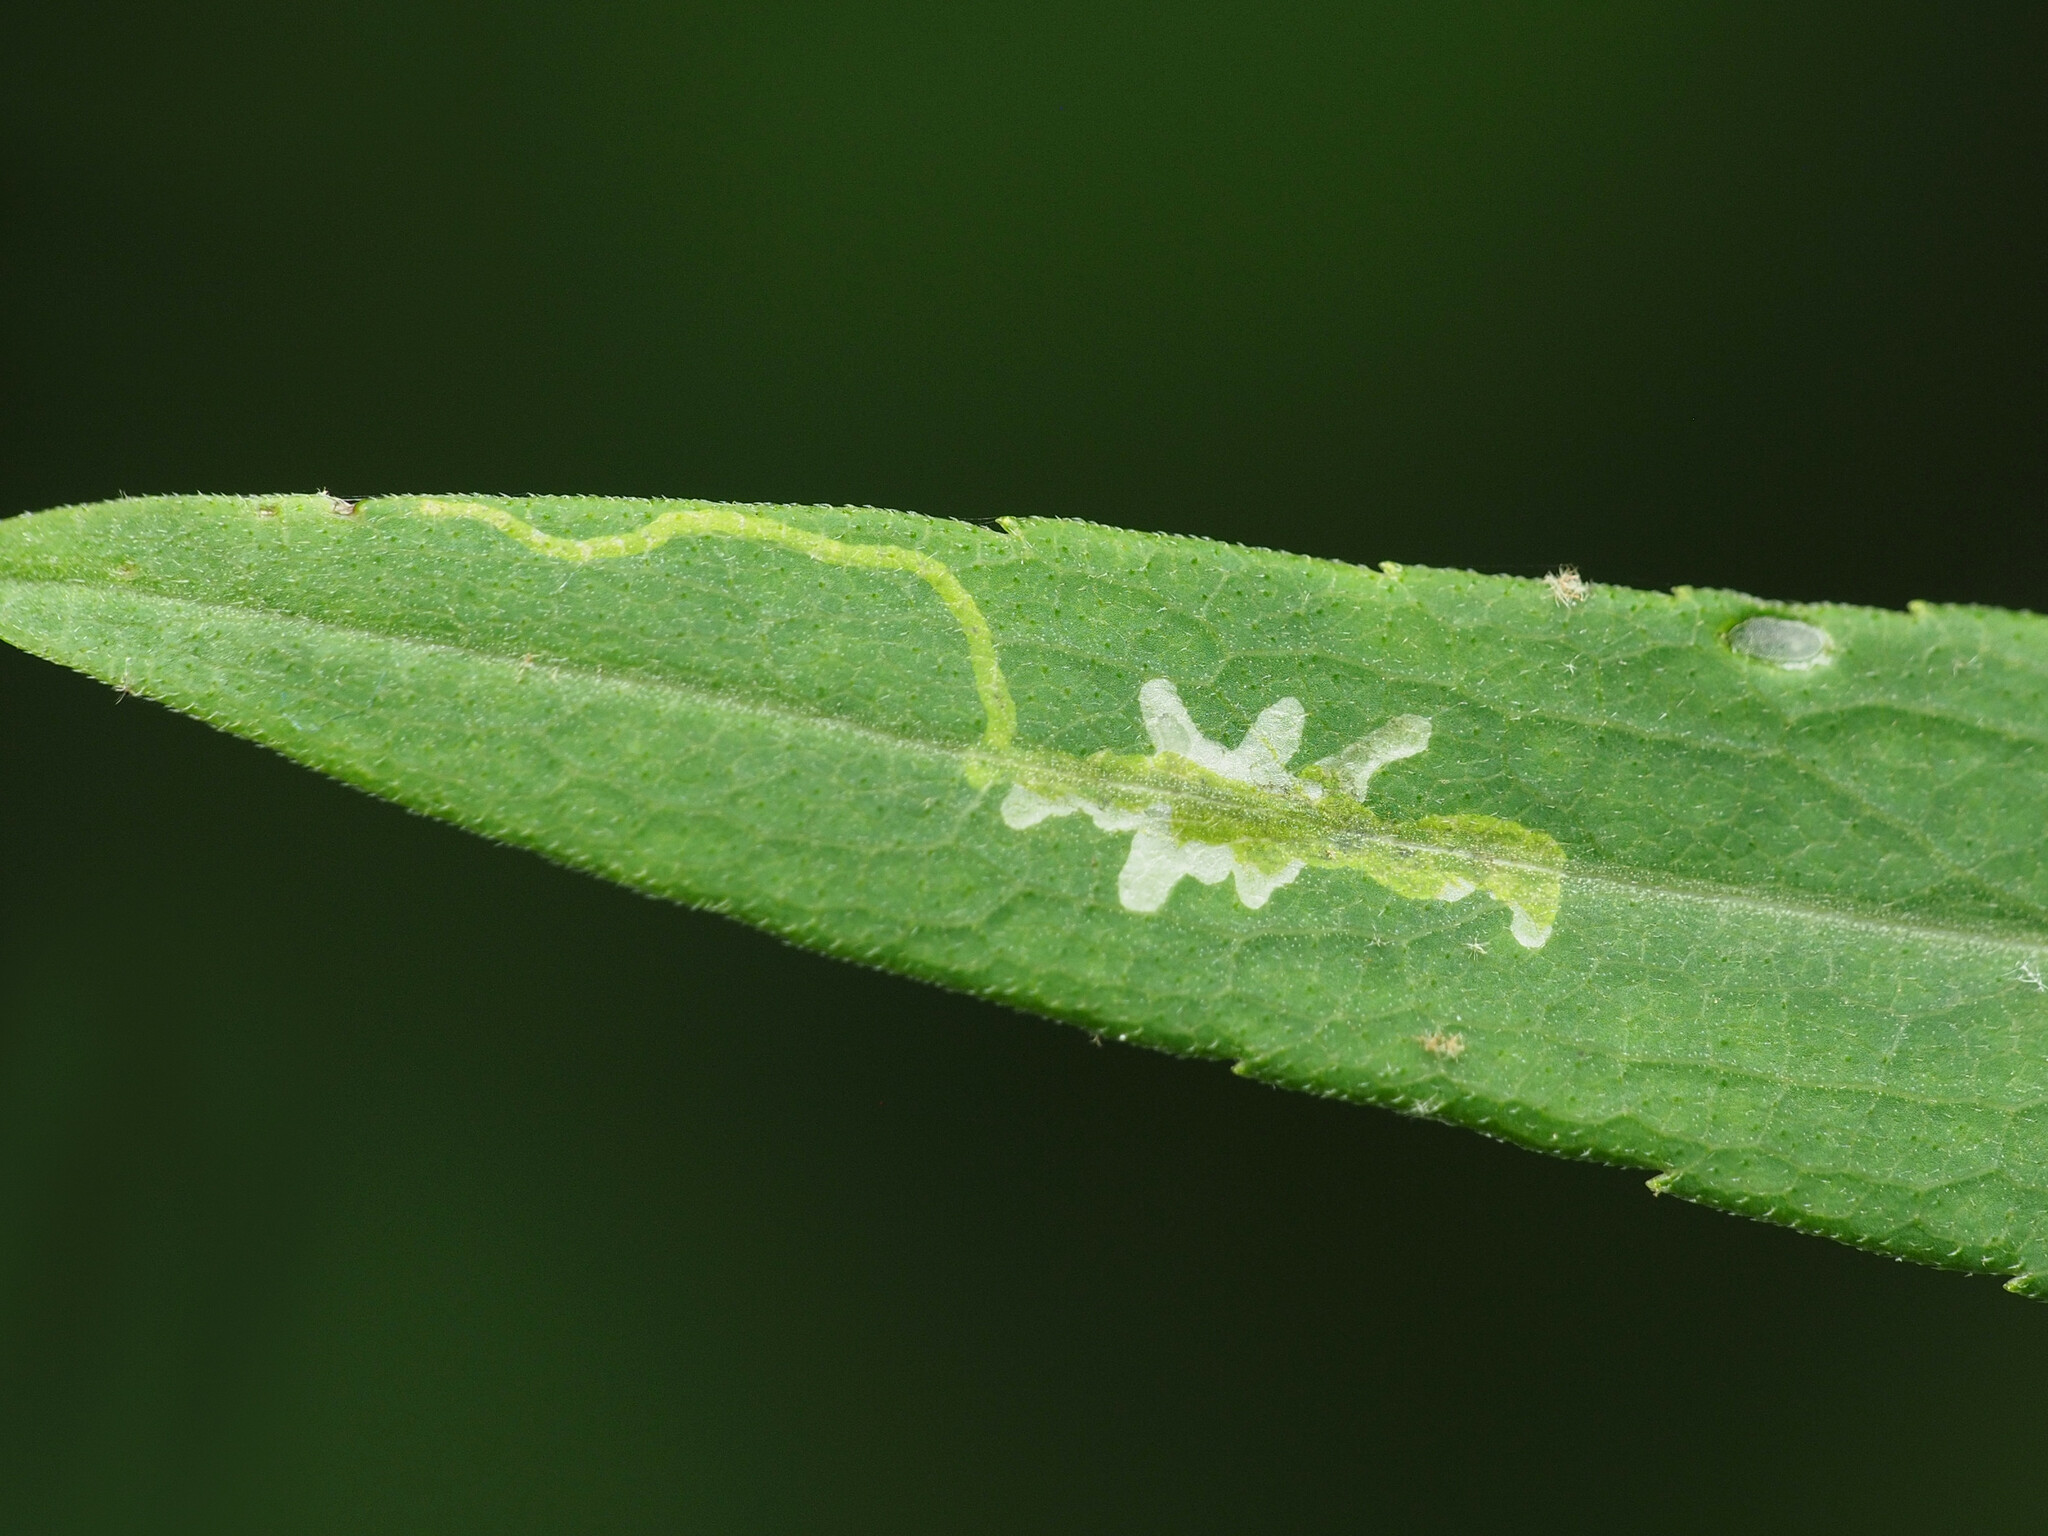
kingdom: Animalia
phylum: Arthropoda
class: Insecta
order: Diptera
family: Agromyzidae
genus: Calycomyza
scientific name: Calycomyza promissa
